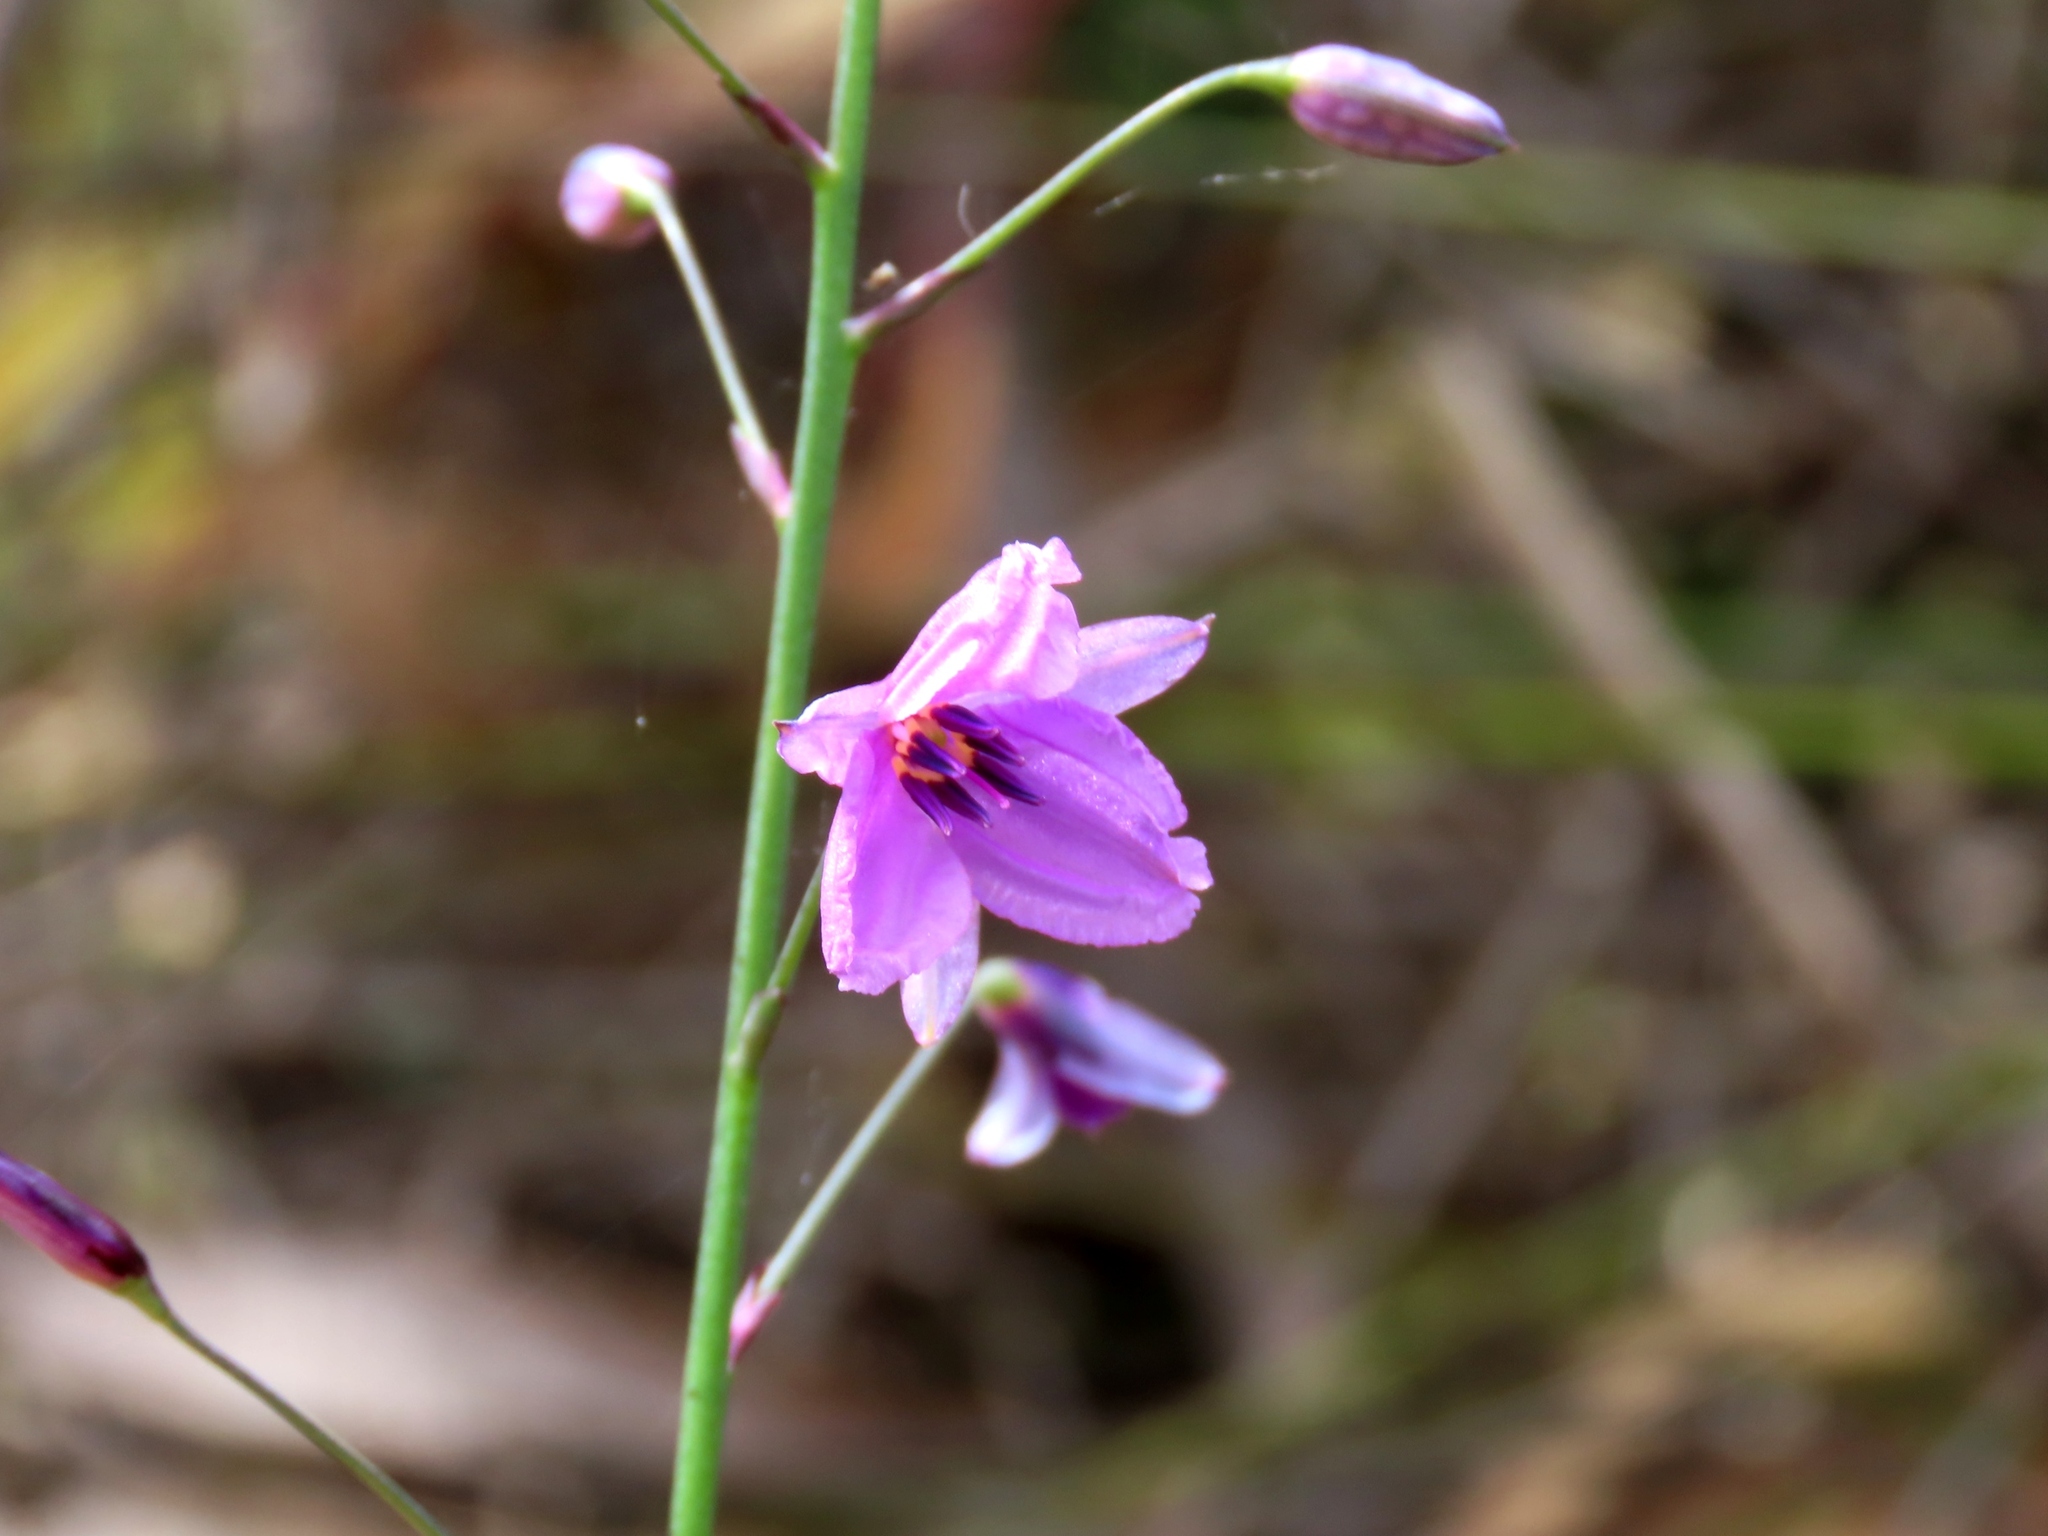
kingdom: Plantae
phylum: Tracheophyta
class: Liliopsida
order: Asparagales
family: Asparagaceae
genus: Arthropodium
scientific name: Arthropodium strictum
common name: Chocolate-lily
